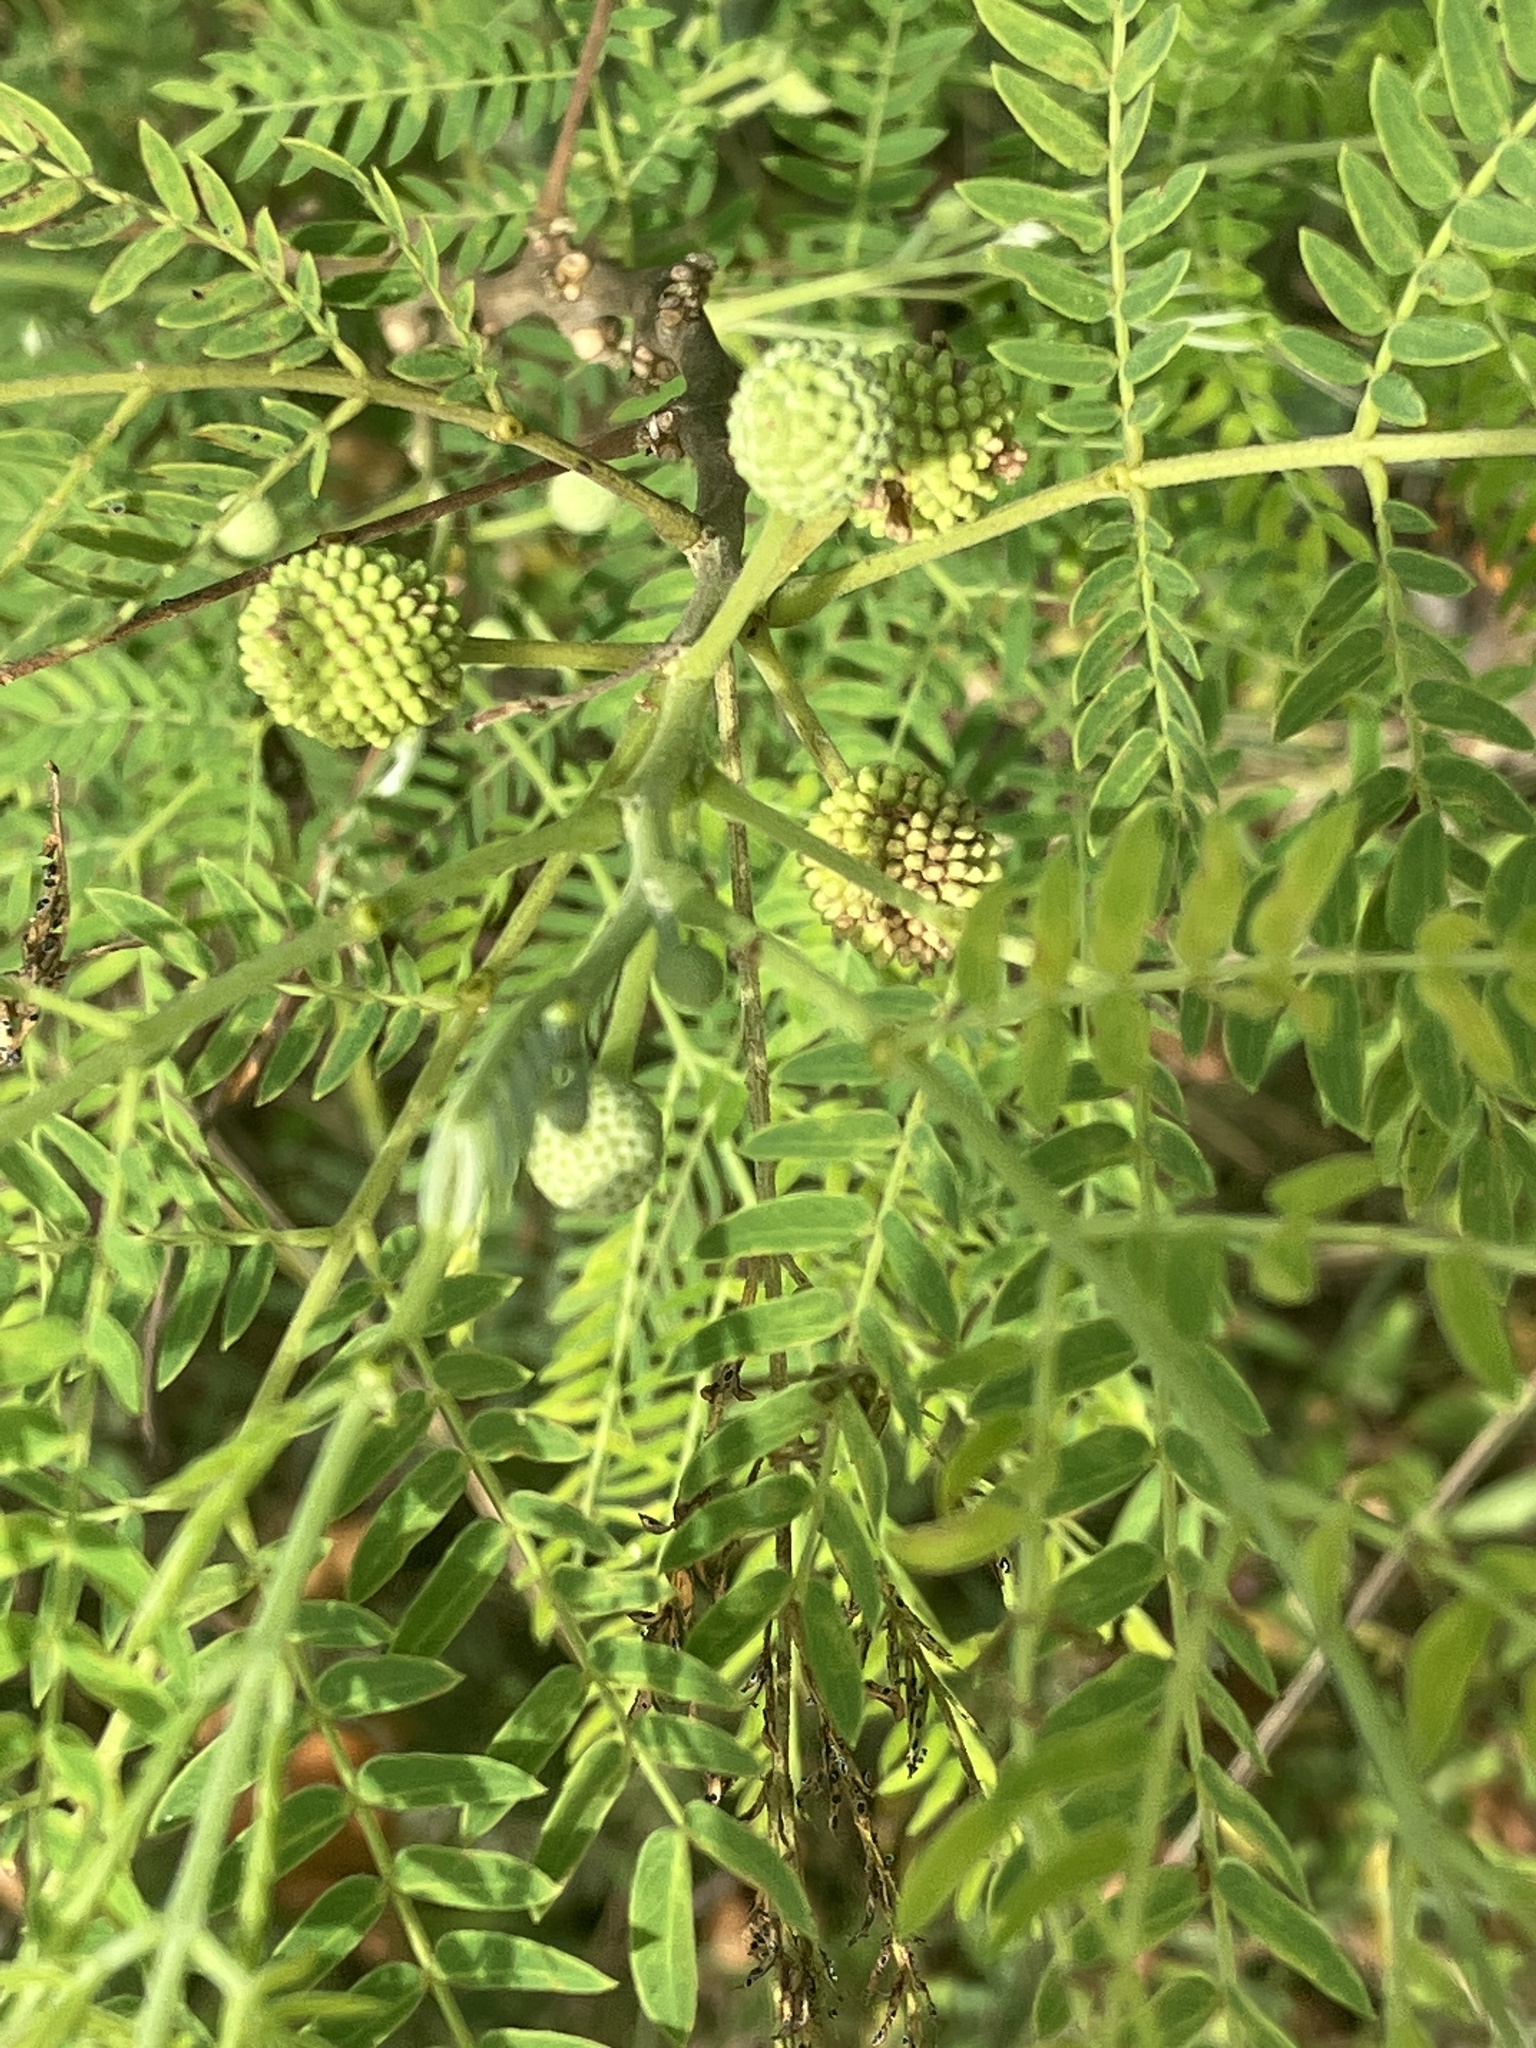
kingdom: Plantae
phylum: Tracheophyta
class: Magnoliopsida
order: Fabales
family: Fabaceae
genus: Leucaena
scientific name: Leucaena leucocephala
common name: White leadtree
